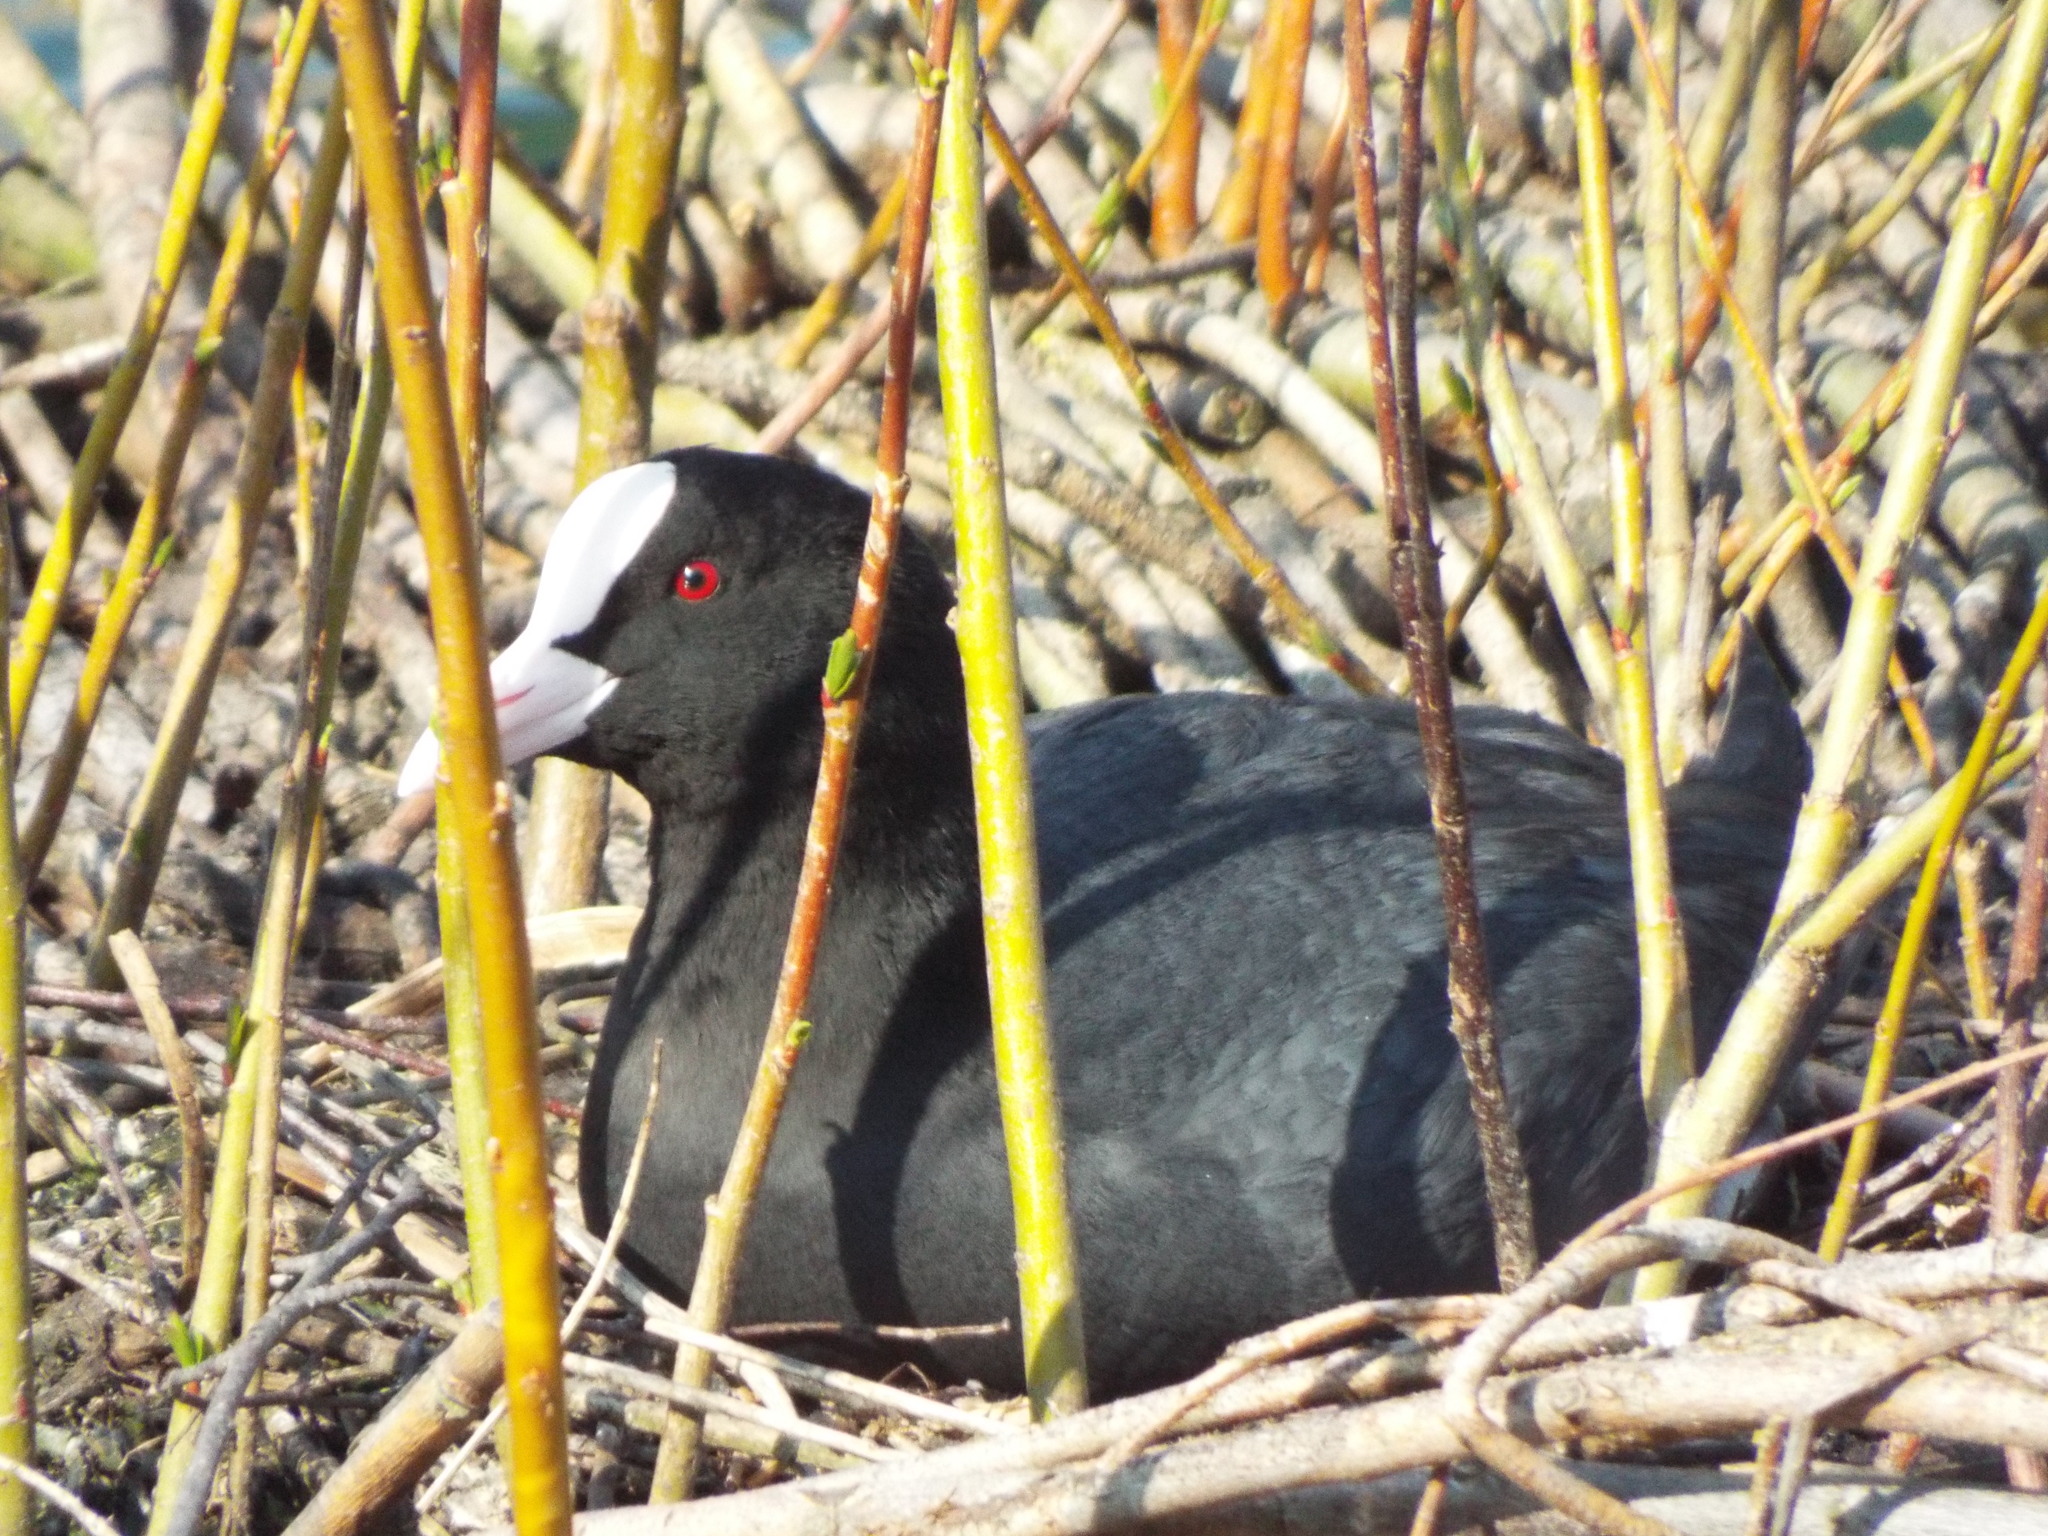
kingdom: Animalia
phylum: Chordata
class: Aves
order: Gruiformes
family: Rallidae
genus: Fulica
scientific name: Fulica atra
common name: Eurasian coot
